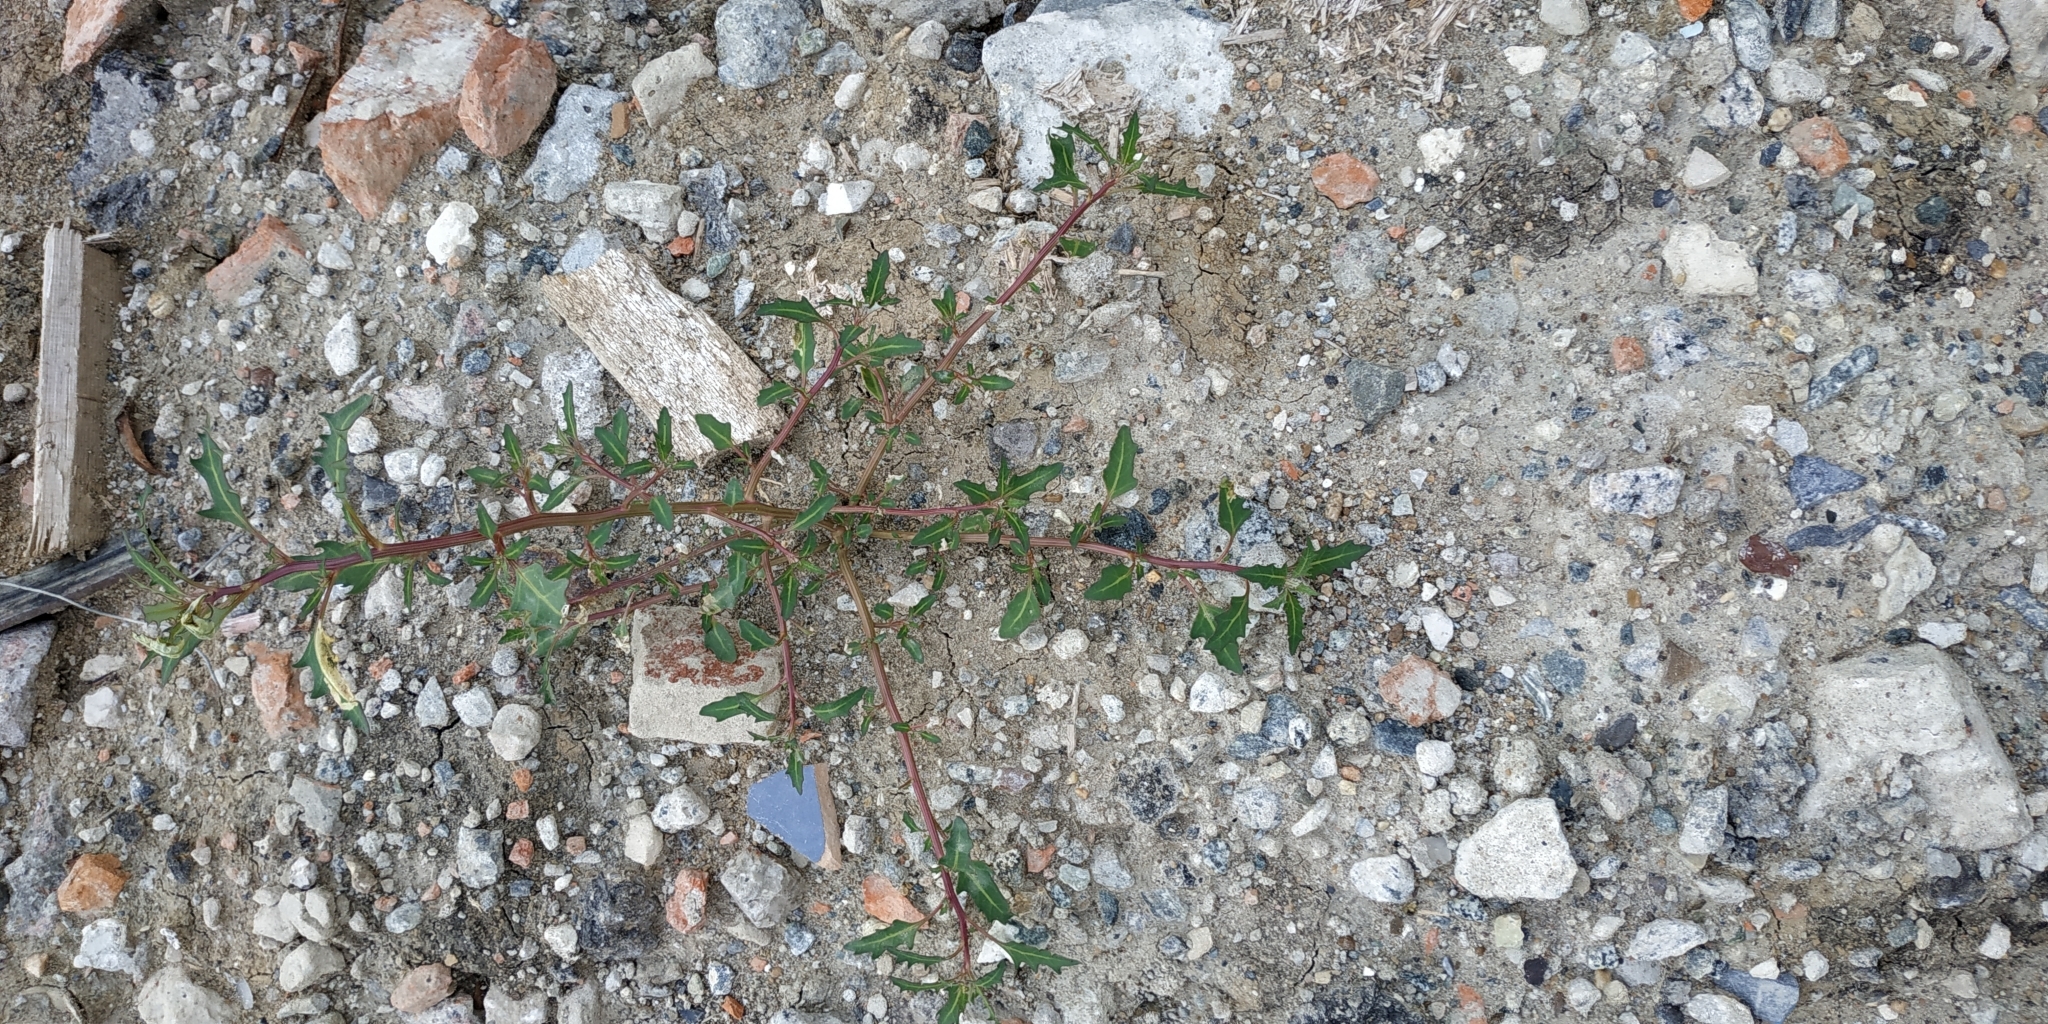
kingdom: Plantae
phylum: Tracheophyta
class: Magnoliopsida
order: Caryophyllales
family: Amaranthaceae
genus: Oxybasis
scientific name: Oxybasis glauca
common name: Glaucous goosefoot
